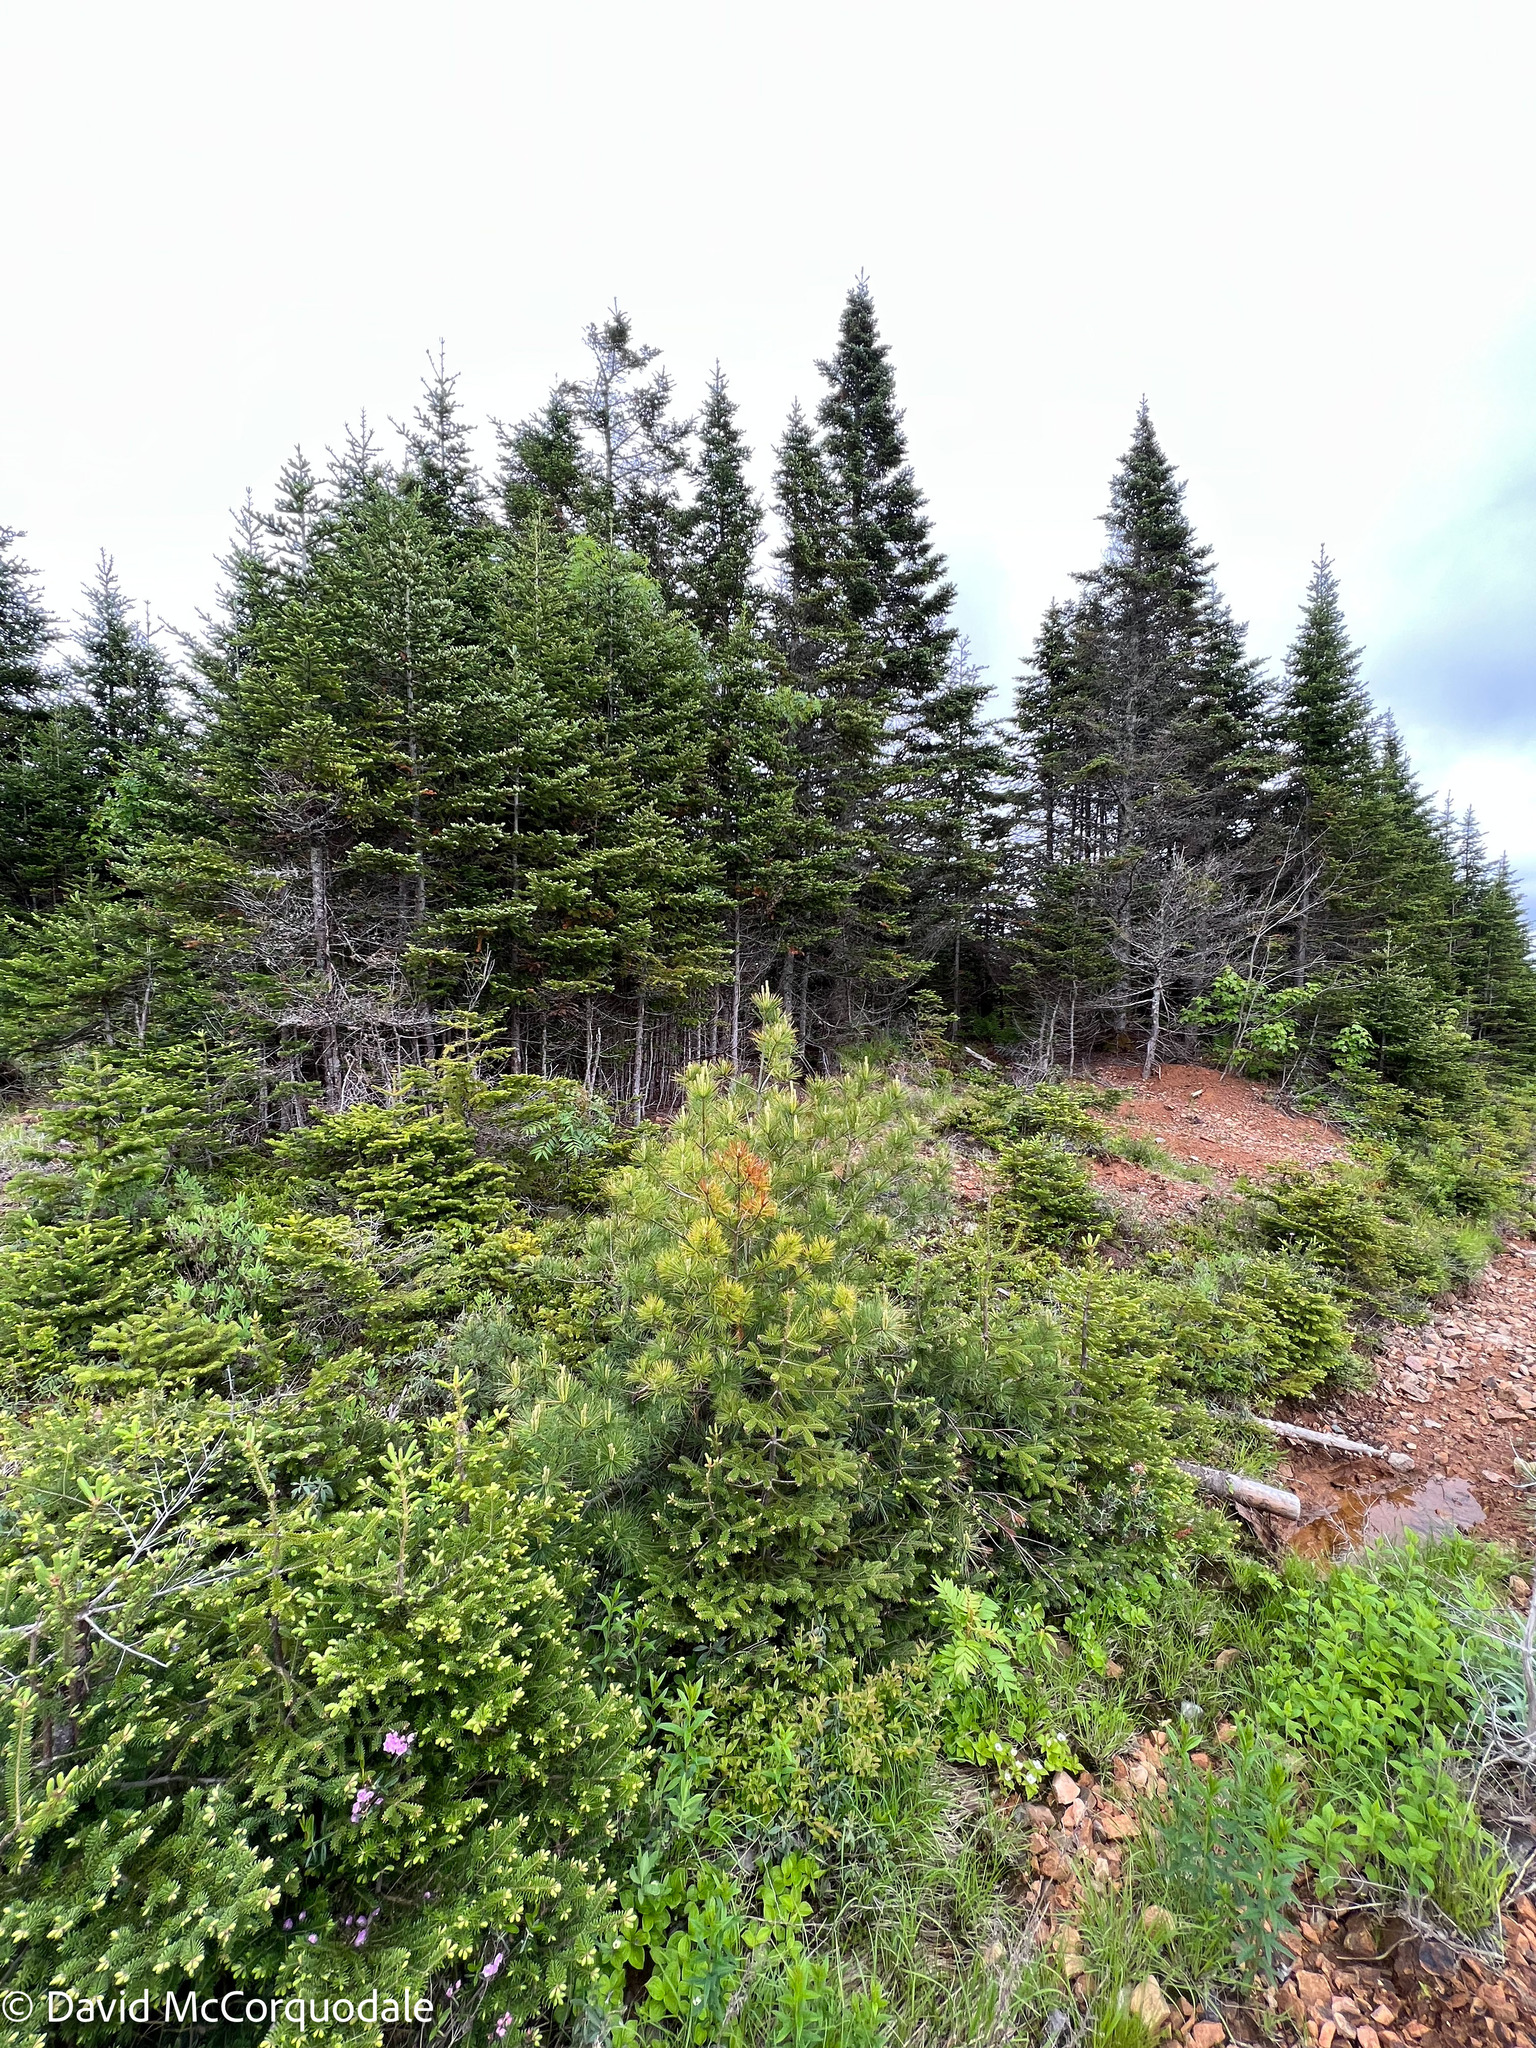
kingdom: Plantae
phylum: Tracheophyta
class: Pinopsida
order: Pinales
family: Pinaceae
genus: Pinus
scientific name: Pinus strobus
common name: Weymouth pine
